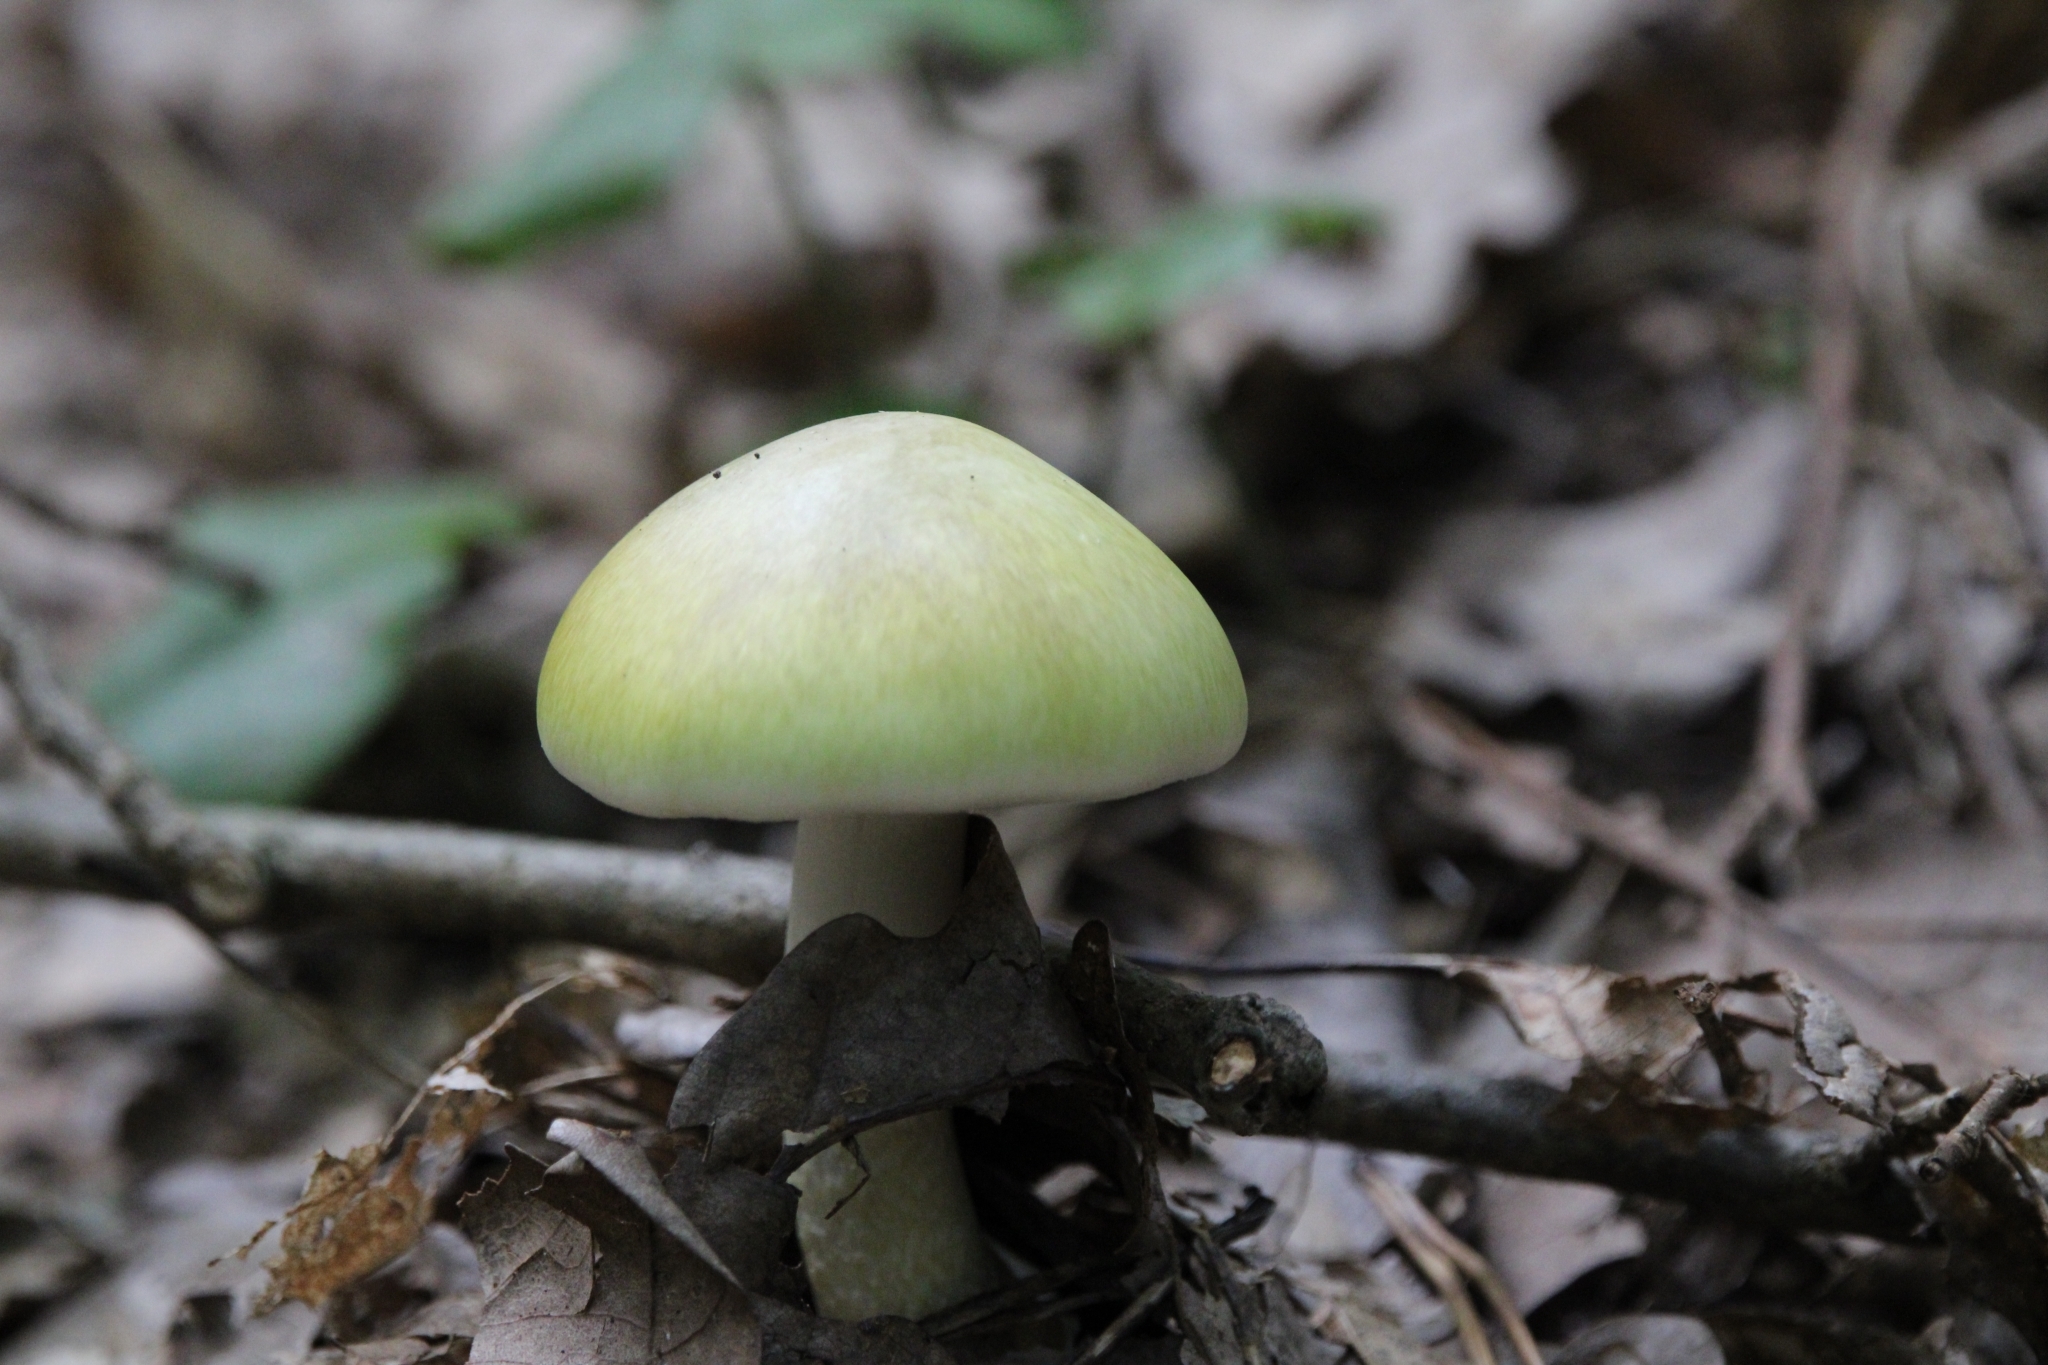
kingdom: Fungi
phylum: Basidiomycota
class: Agaricomycetes
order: Agaricales
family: Amanitaceae
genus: Amanita
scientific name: Amanita phalloides
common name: Death cap
